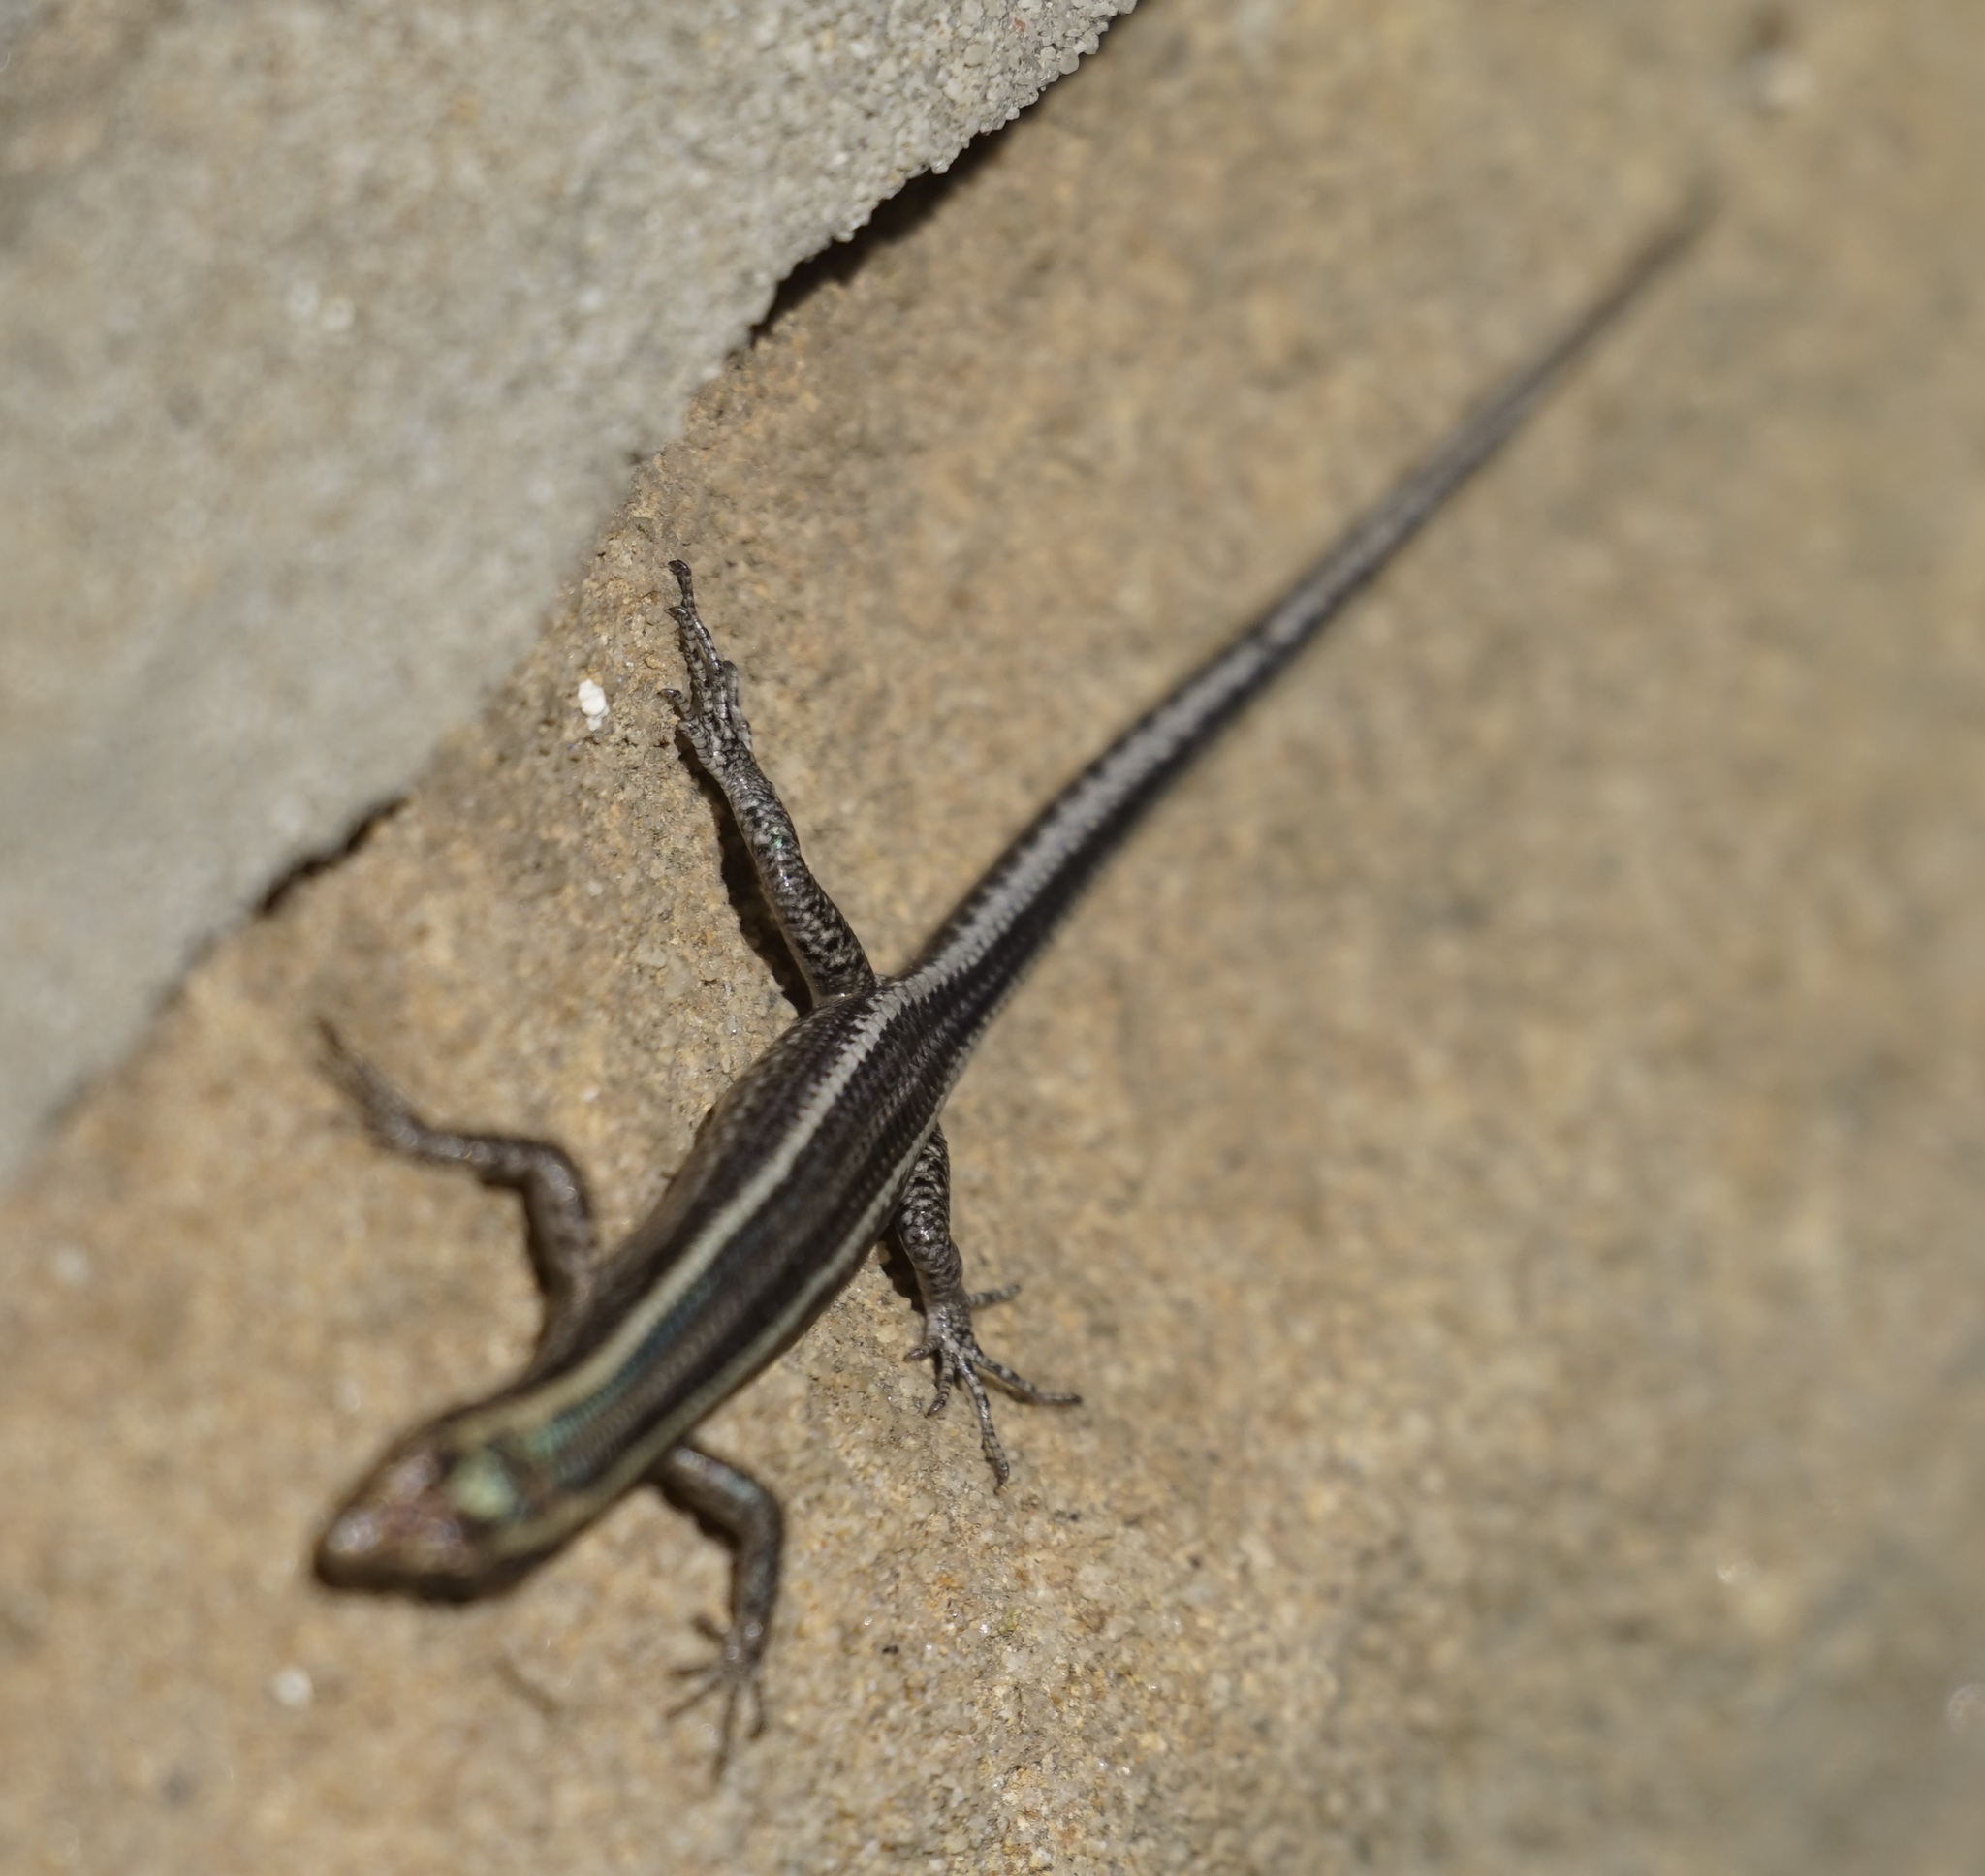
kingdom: Animalia
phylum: Chordata
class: Squamata
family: Scincidae
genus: Cryptoblepharus
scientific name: Cryptoblepharus pulcher
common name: Elegant snake-eyed skink
